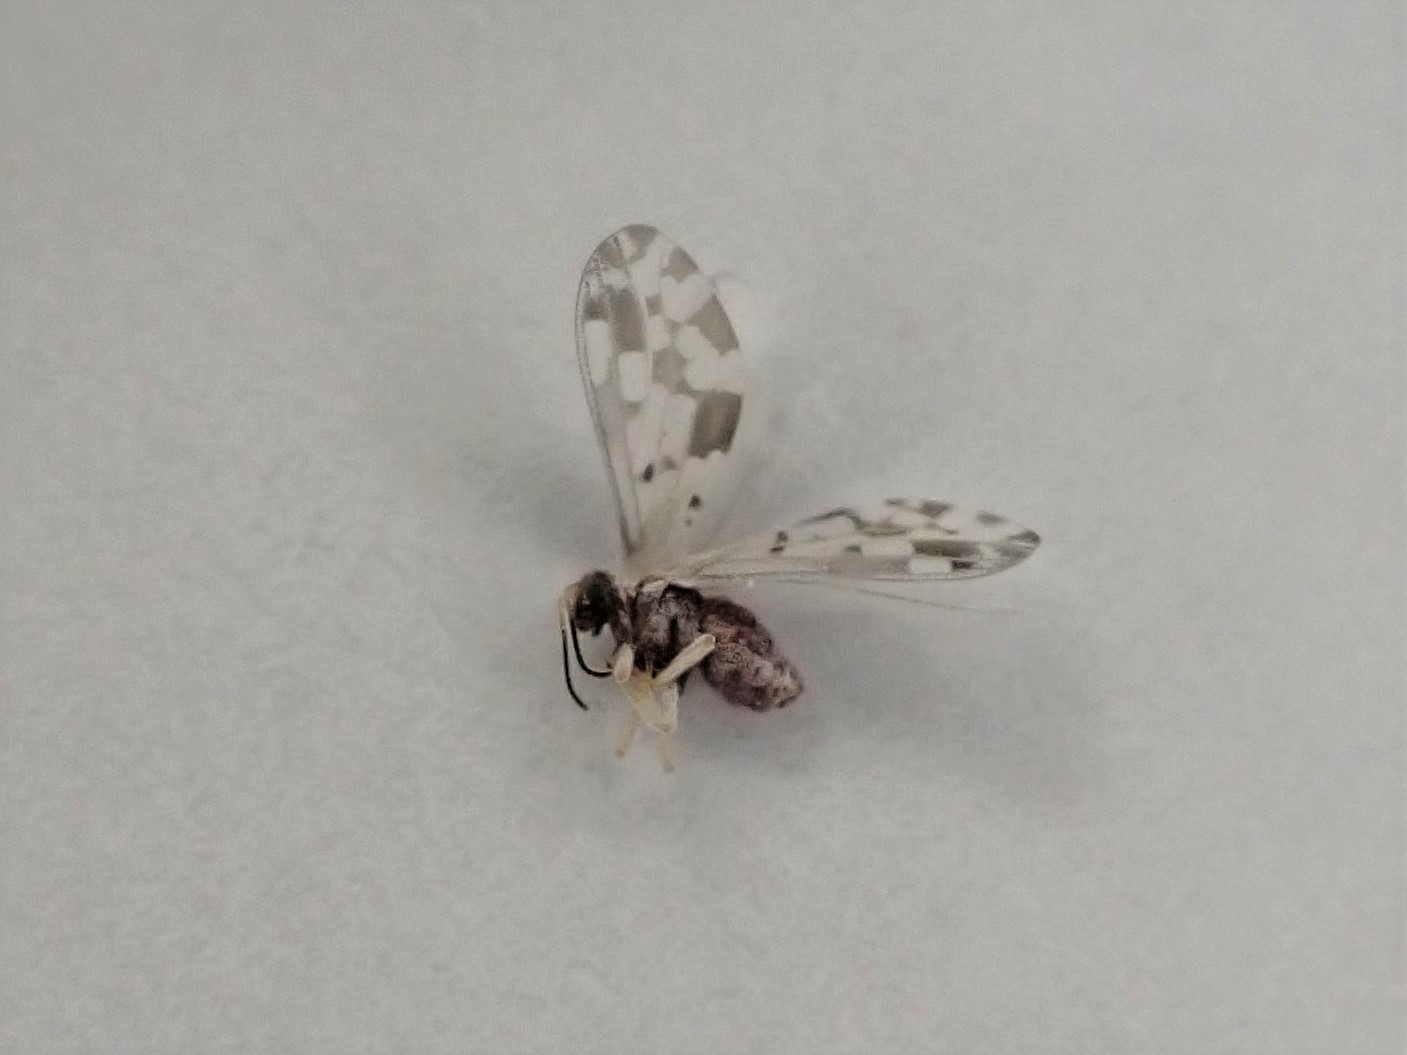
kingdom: Animalia
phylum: Arthropoda
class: Insecta
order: Neuroptera
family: Coniopterygidae
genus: Heteroconis
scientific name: Heteroconis ornata
